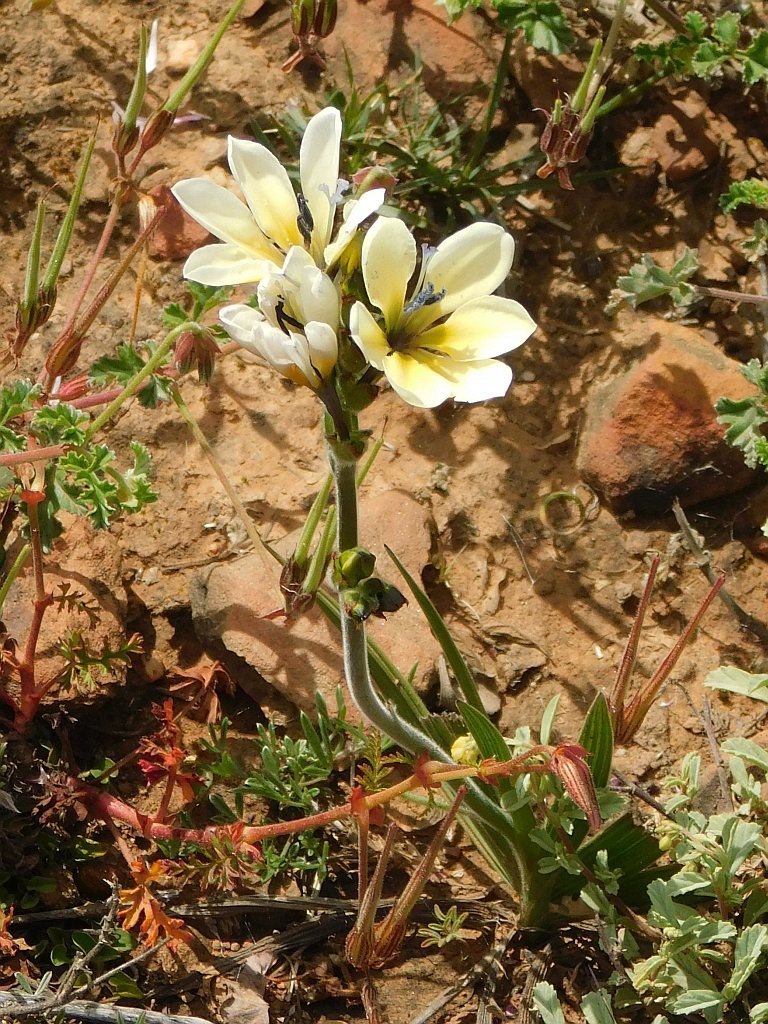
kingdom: Plantae
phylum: Tracheophyta
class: Liliopsida
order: Asparagales
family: Iridaceae
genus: Babiana
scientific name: Babiana nervosa
